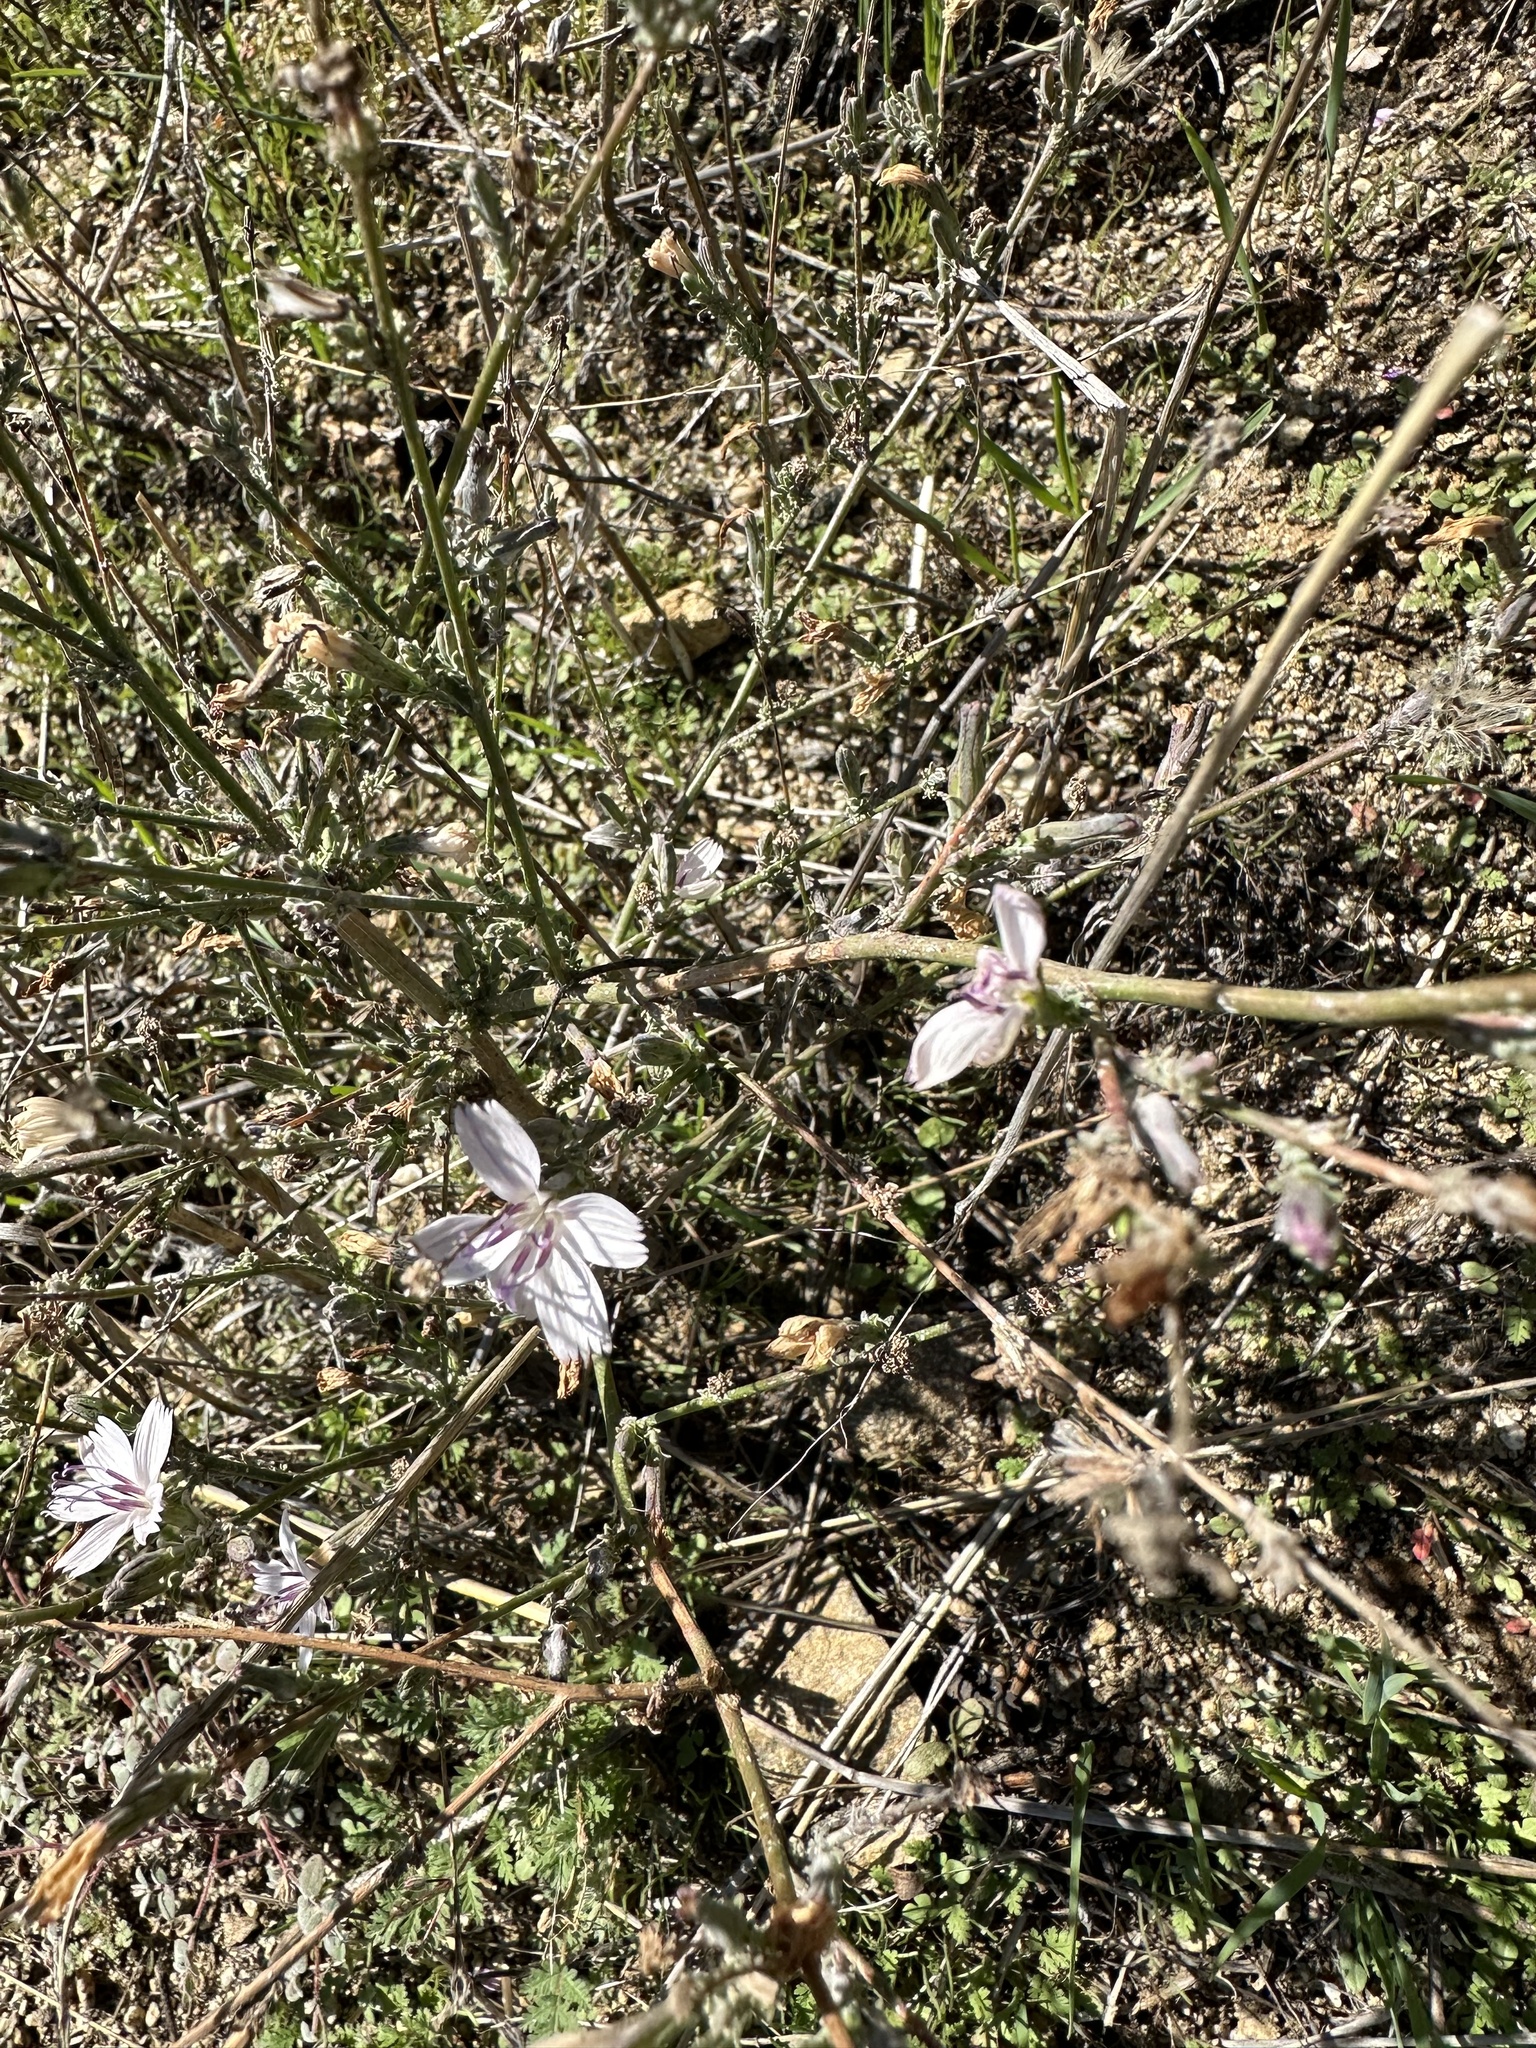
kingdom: Plantae
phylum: Tracheophyta
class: Magnoliopsida
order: Asterales
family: Asteraceae
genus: Stephanomeria
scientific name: Stephanomeria exigua
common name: Small wirelettuce
